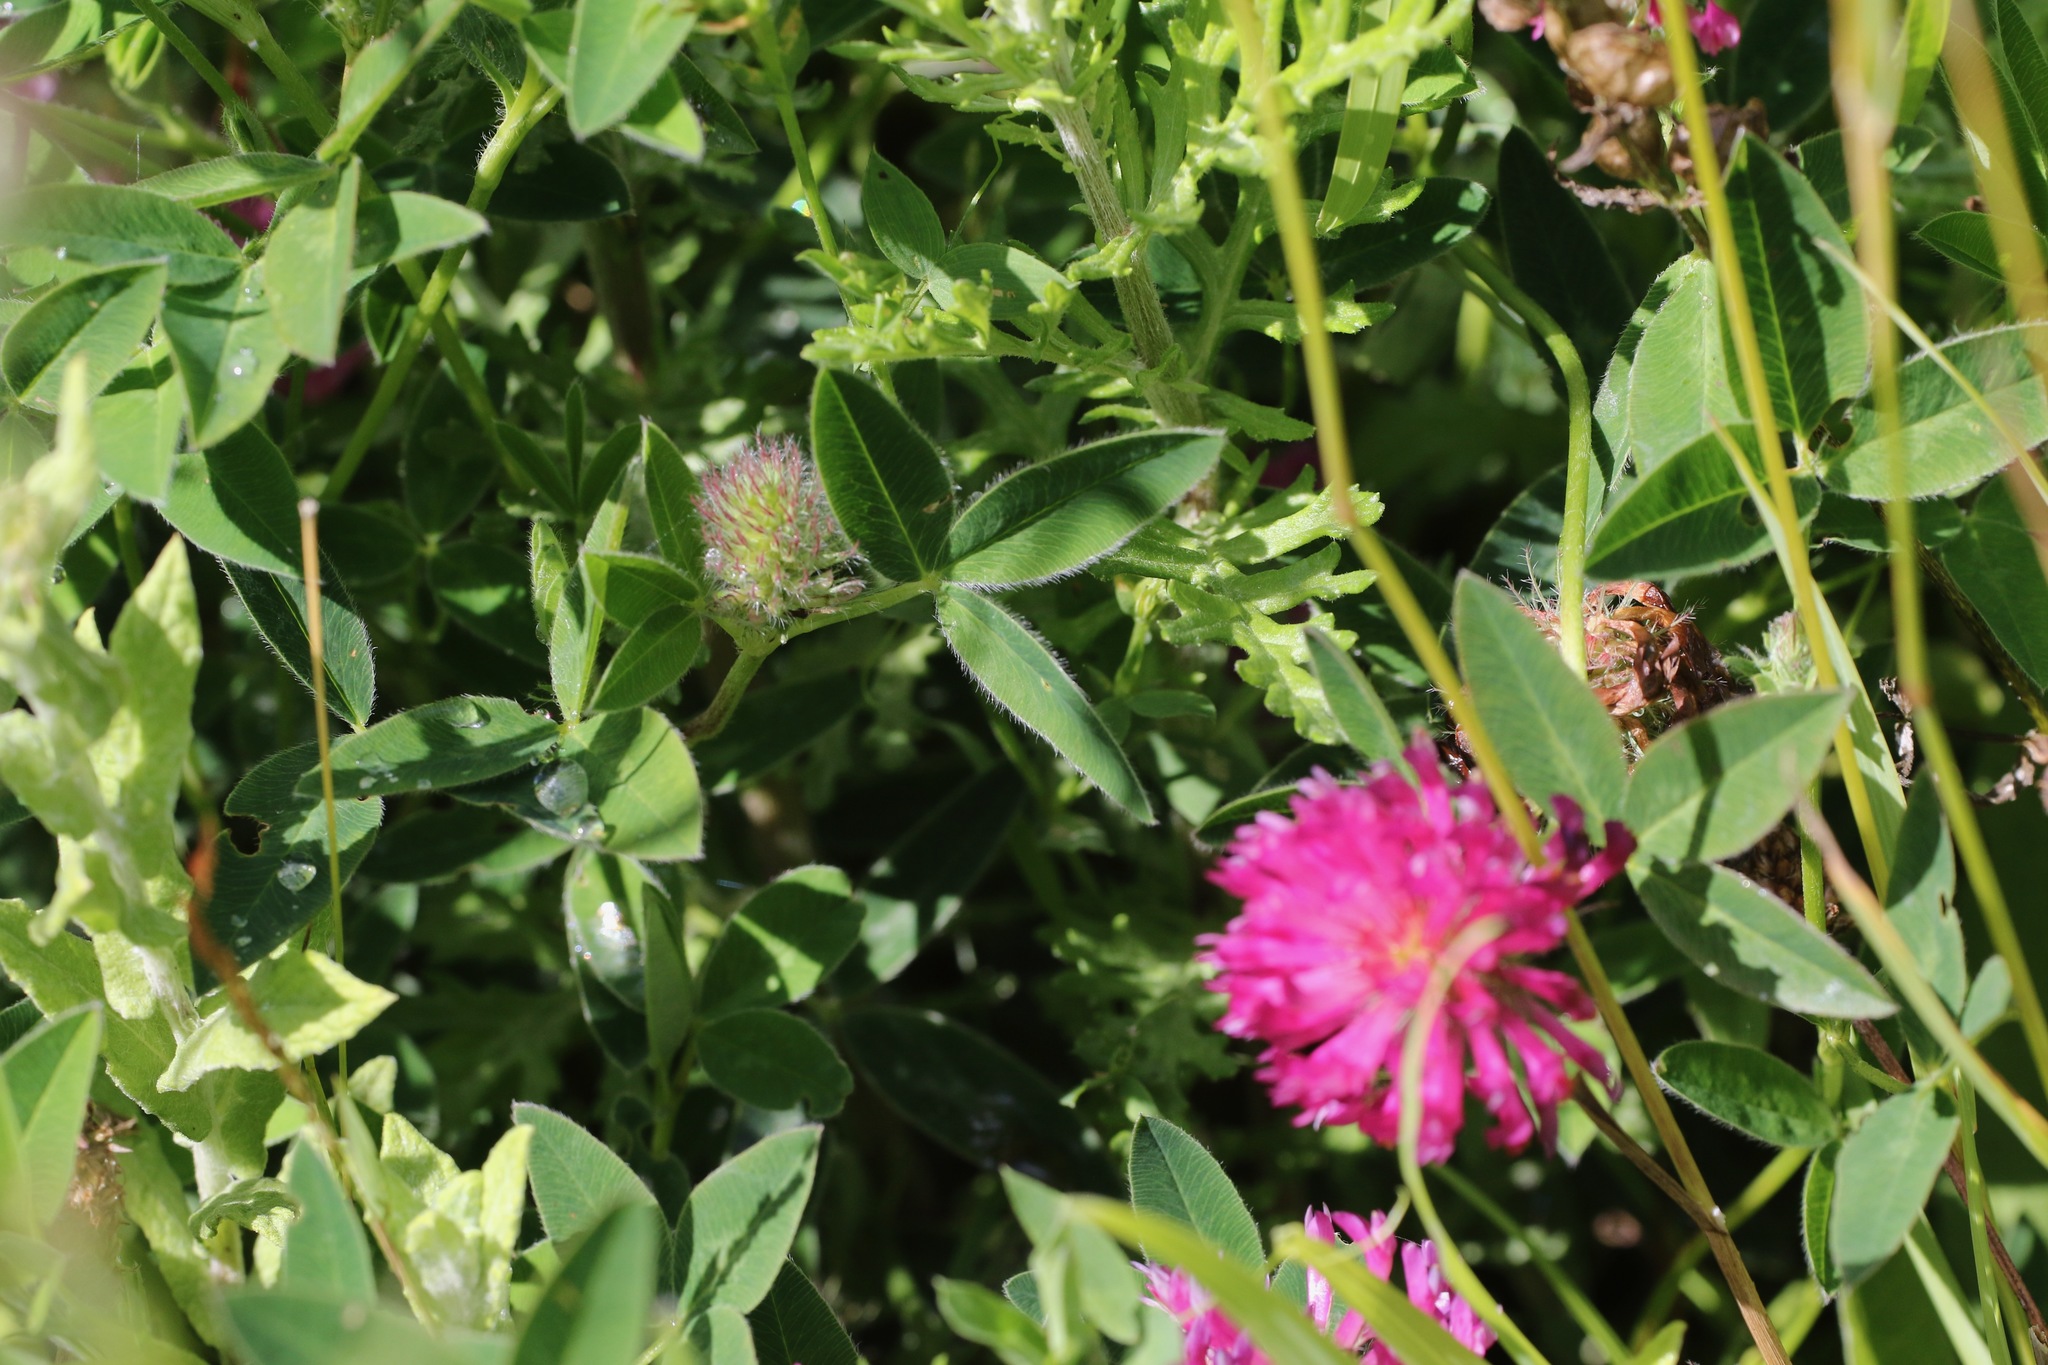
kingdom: Plantae
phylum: Tracheophyta
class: Magnoliopsida
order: Fabales
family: Fabaceae
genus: Trifolium
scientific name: Trifolium medium
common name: Zigzag clover
